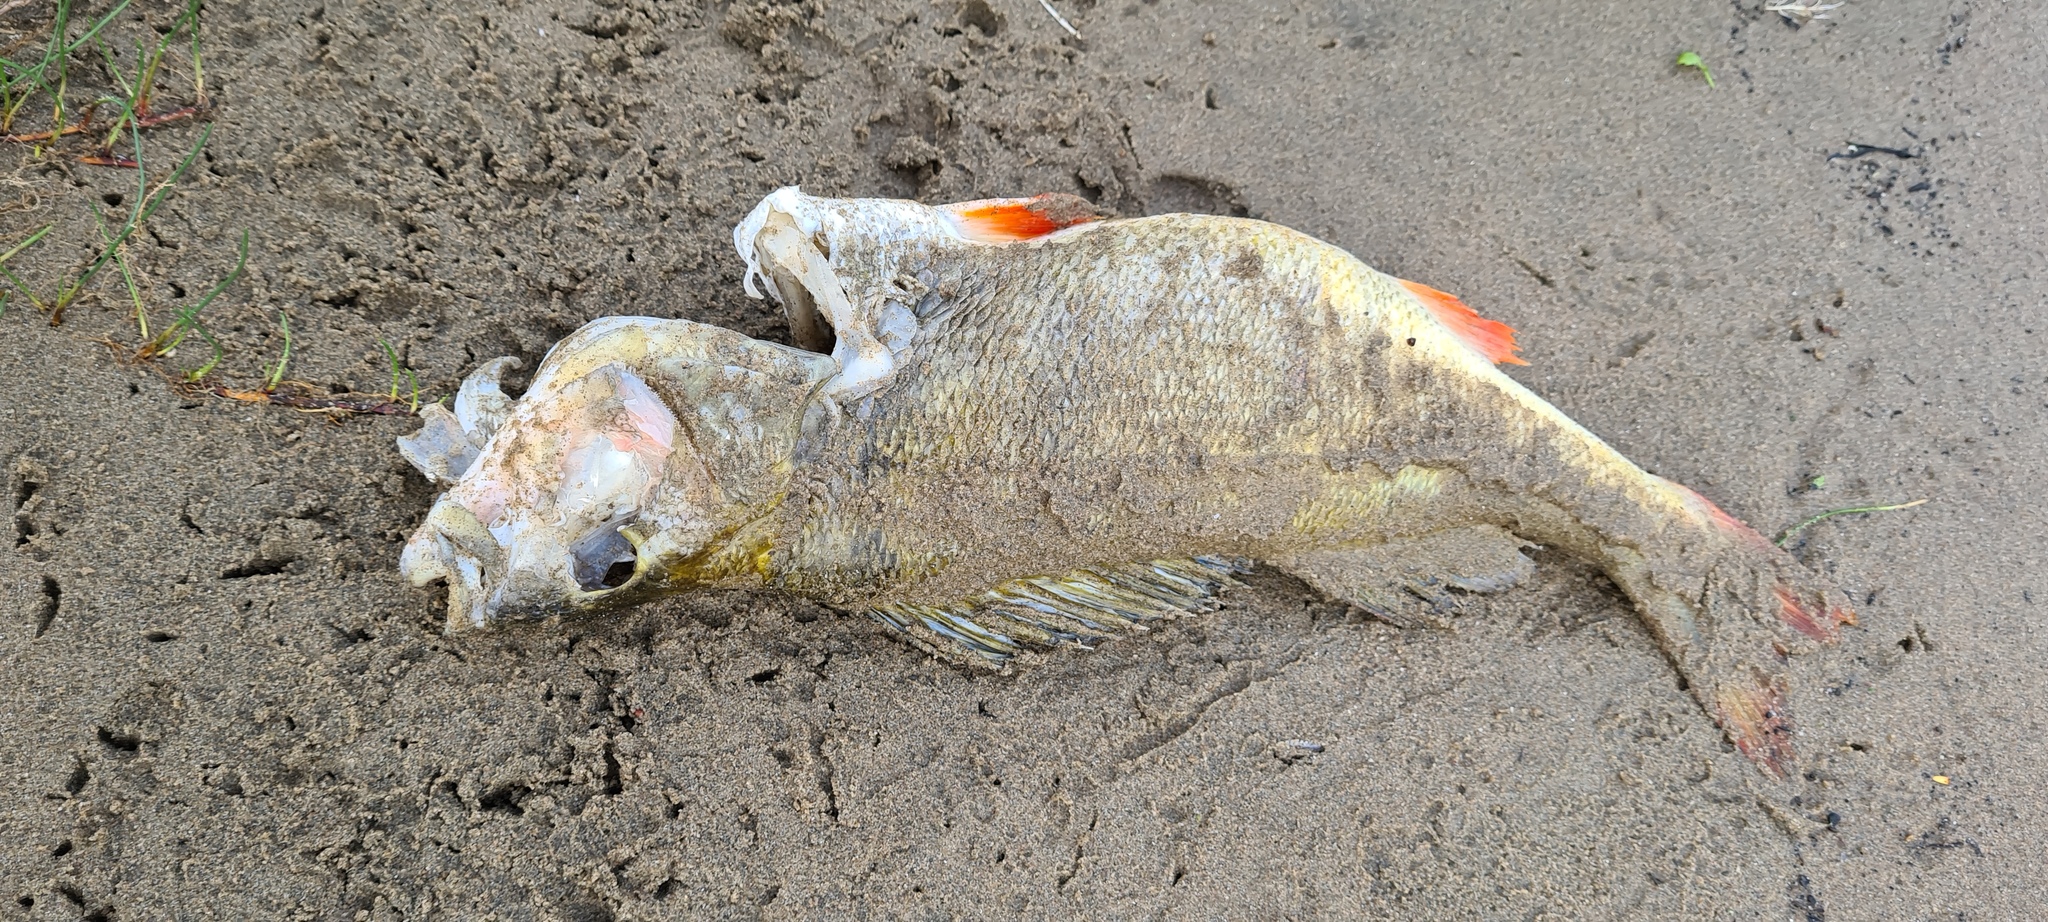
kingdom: Animalia
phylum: Chordata
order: Perciformes
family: Percidae
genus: Perca
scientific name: Perca fluviatilis
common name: Perch
